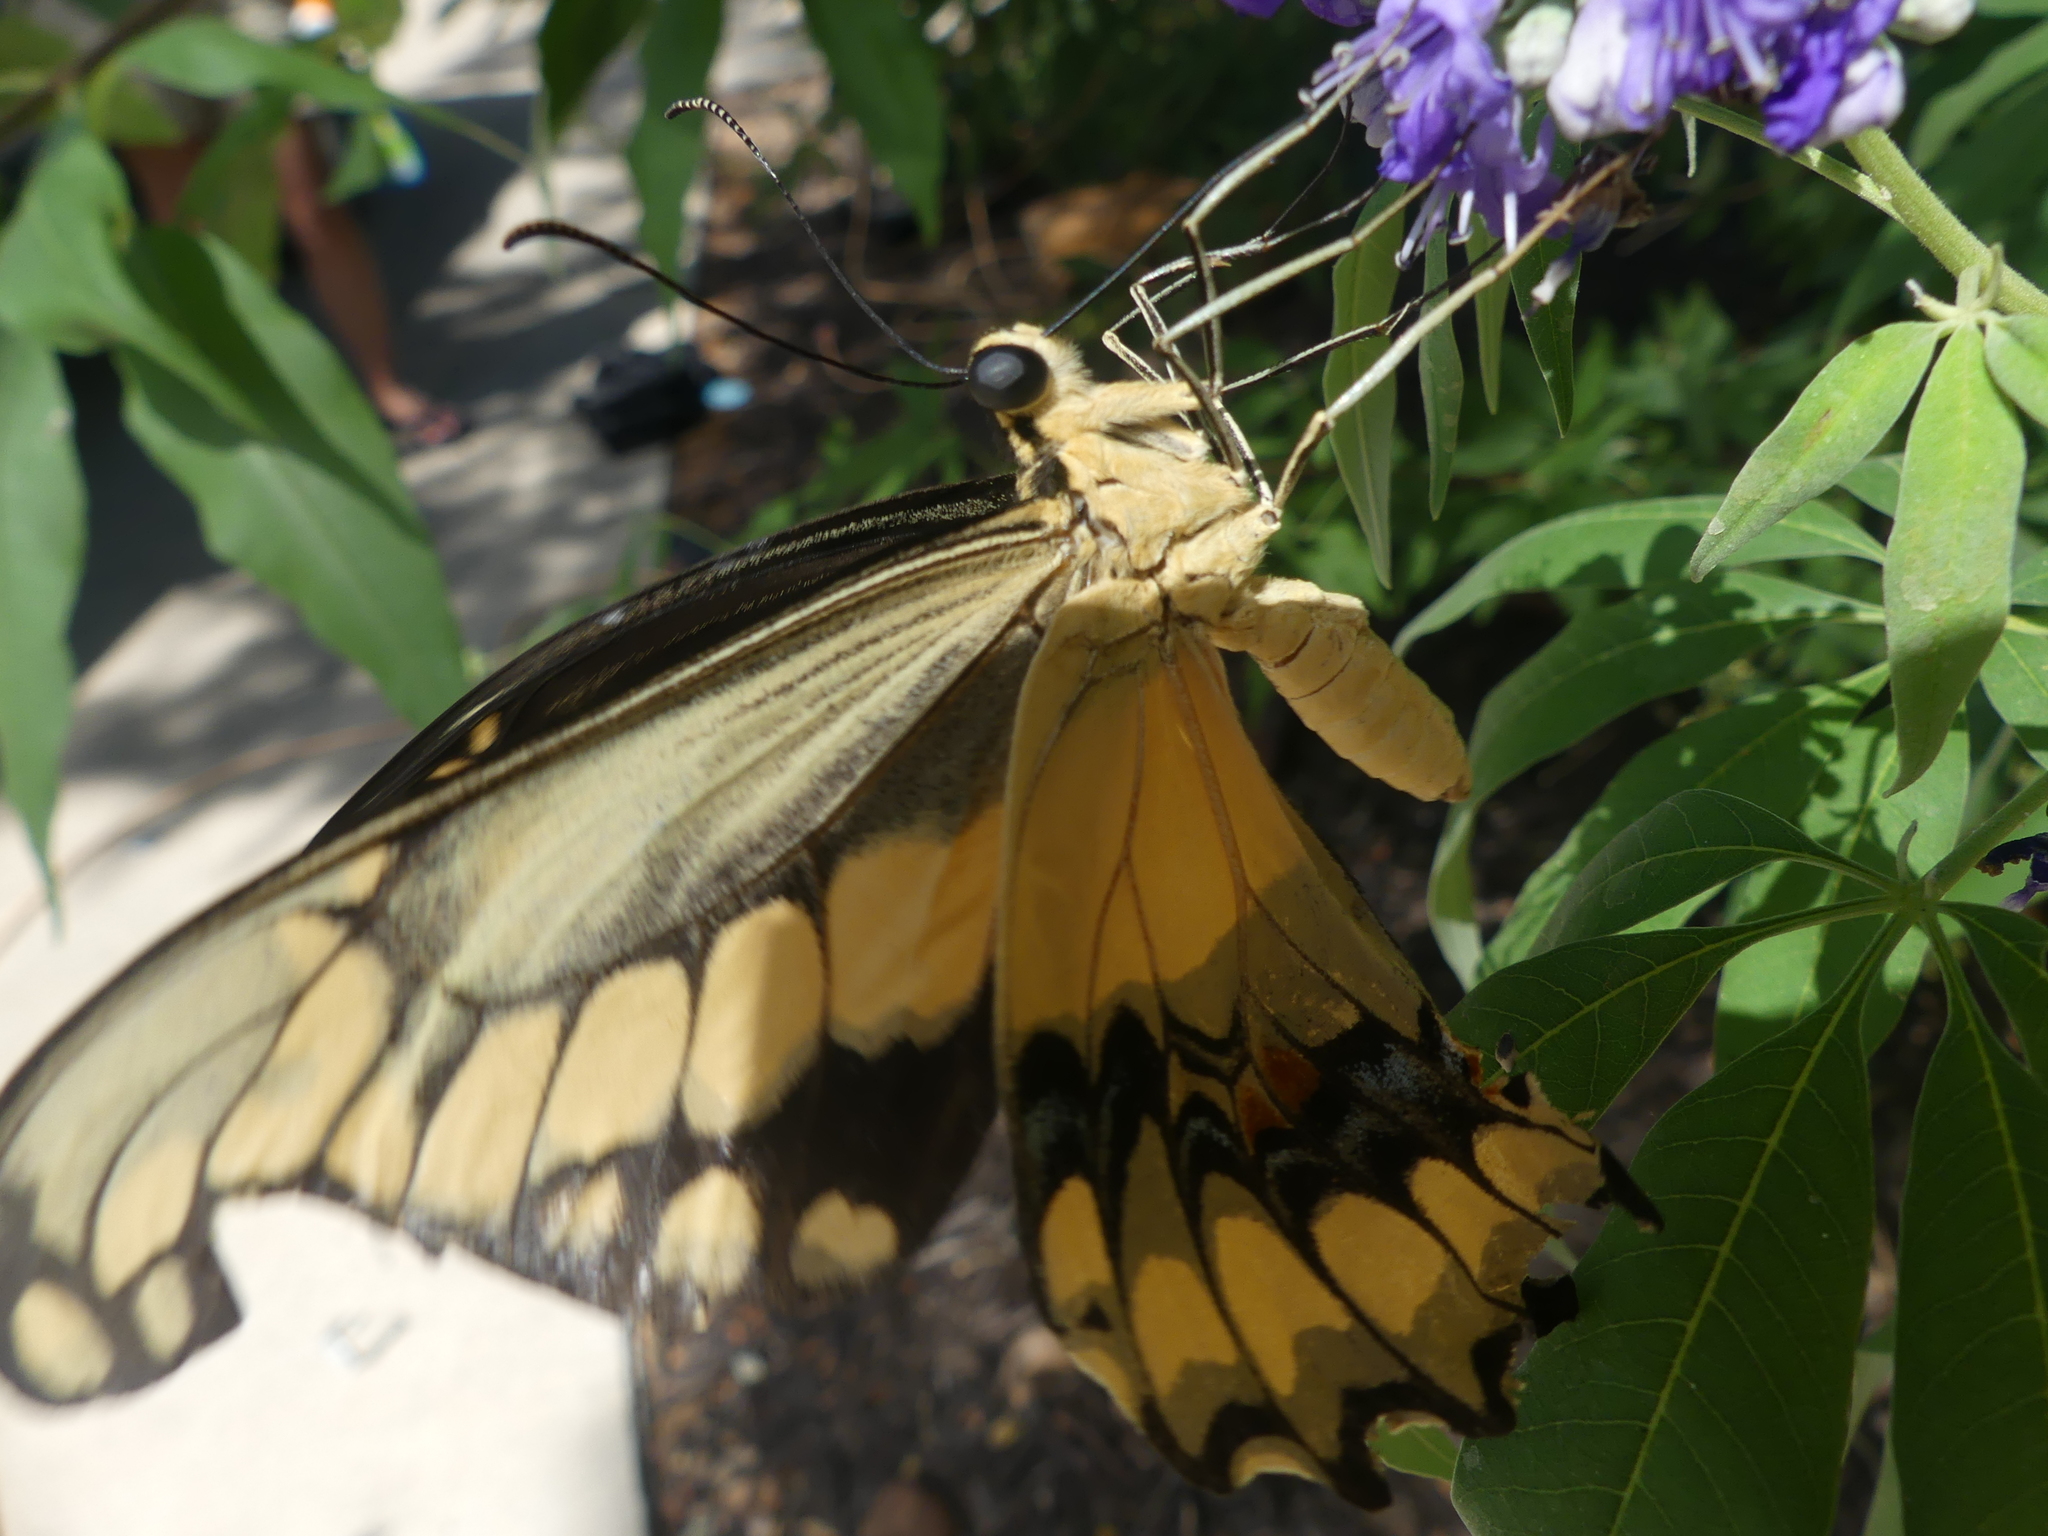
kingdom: Animalia
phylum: Arthropoda
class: Insecta
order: Lepidoptera
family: Papilionidae
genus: Papilio
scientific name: Papilio rumiko
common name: Western giant swallowtail
